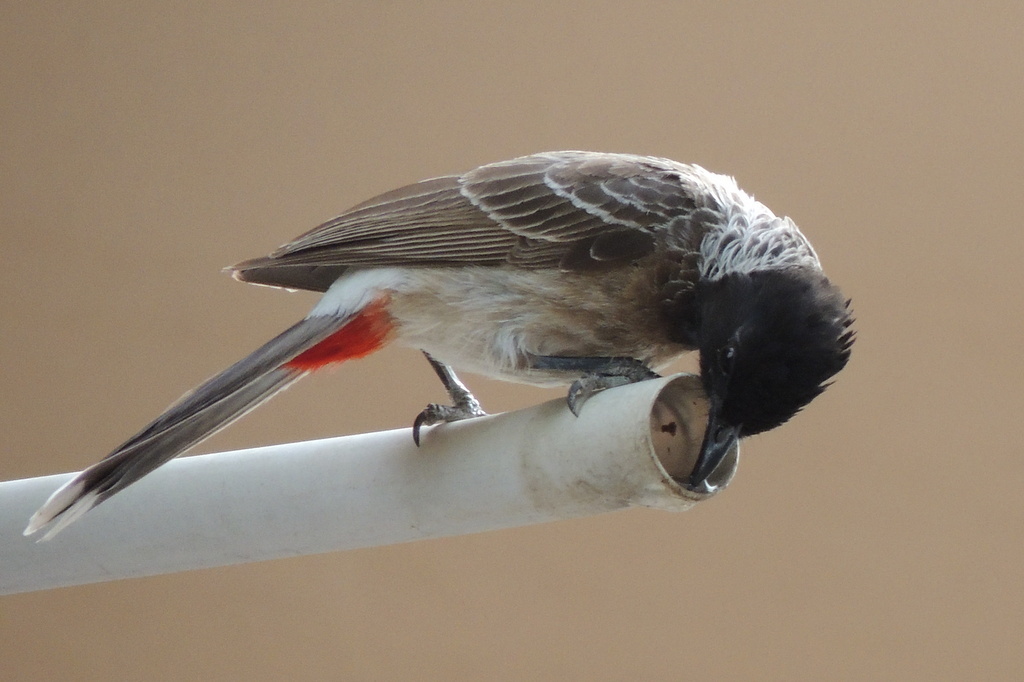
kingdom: Animalia
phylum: Chordata
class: Aves
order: Passeriformes
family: Pycnonotidae
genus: Pycnonotus
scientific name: Pycnonotus cafer
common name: Red-vented bulbul
